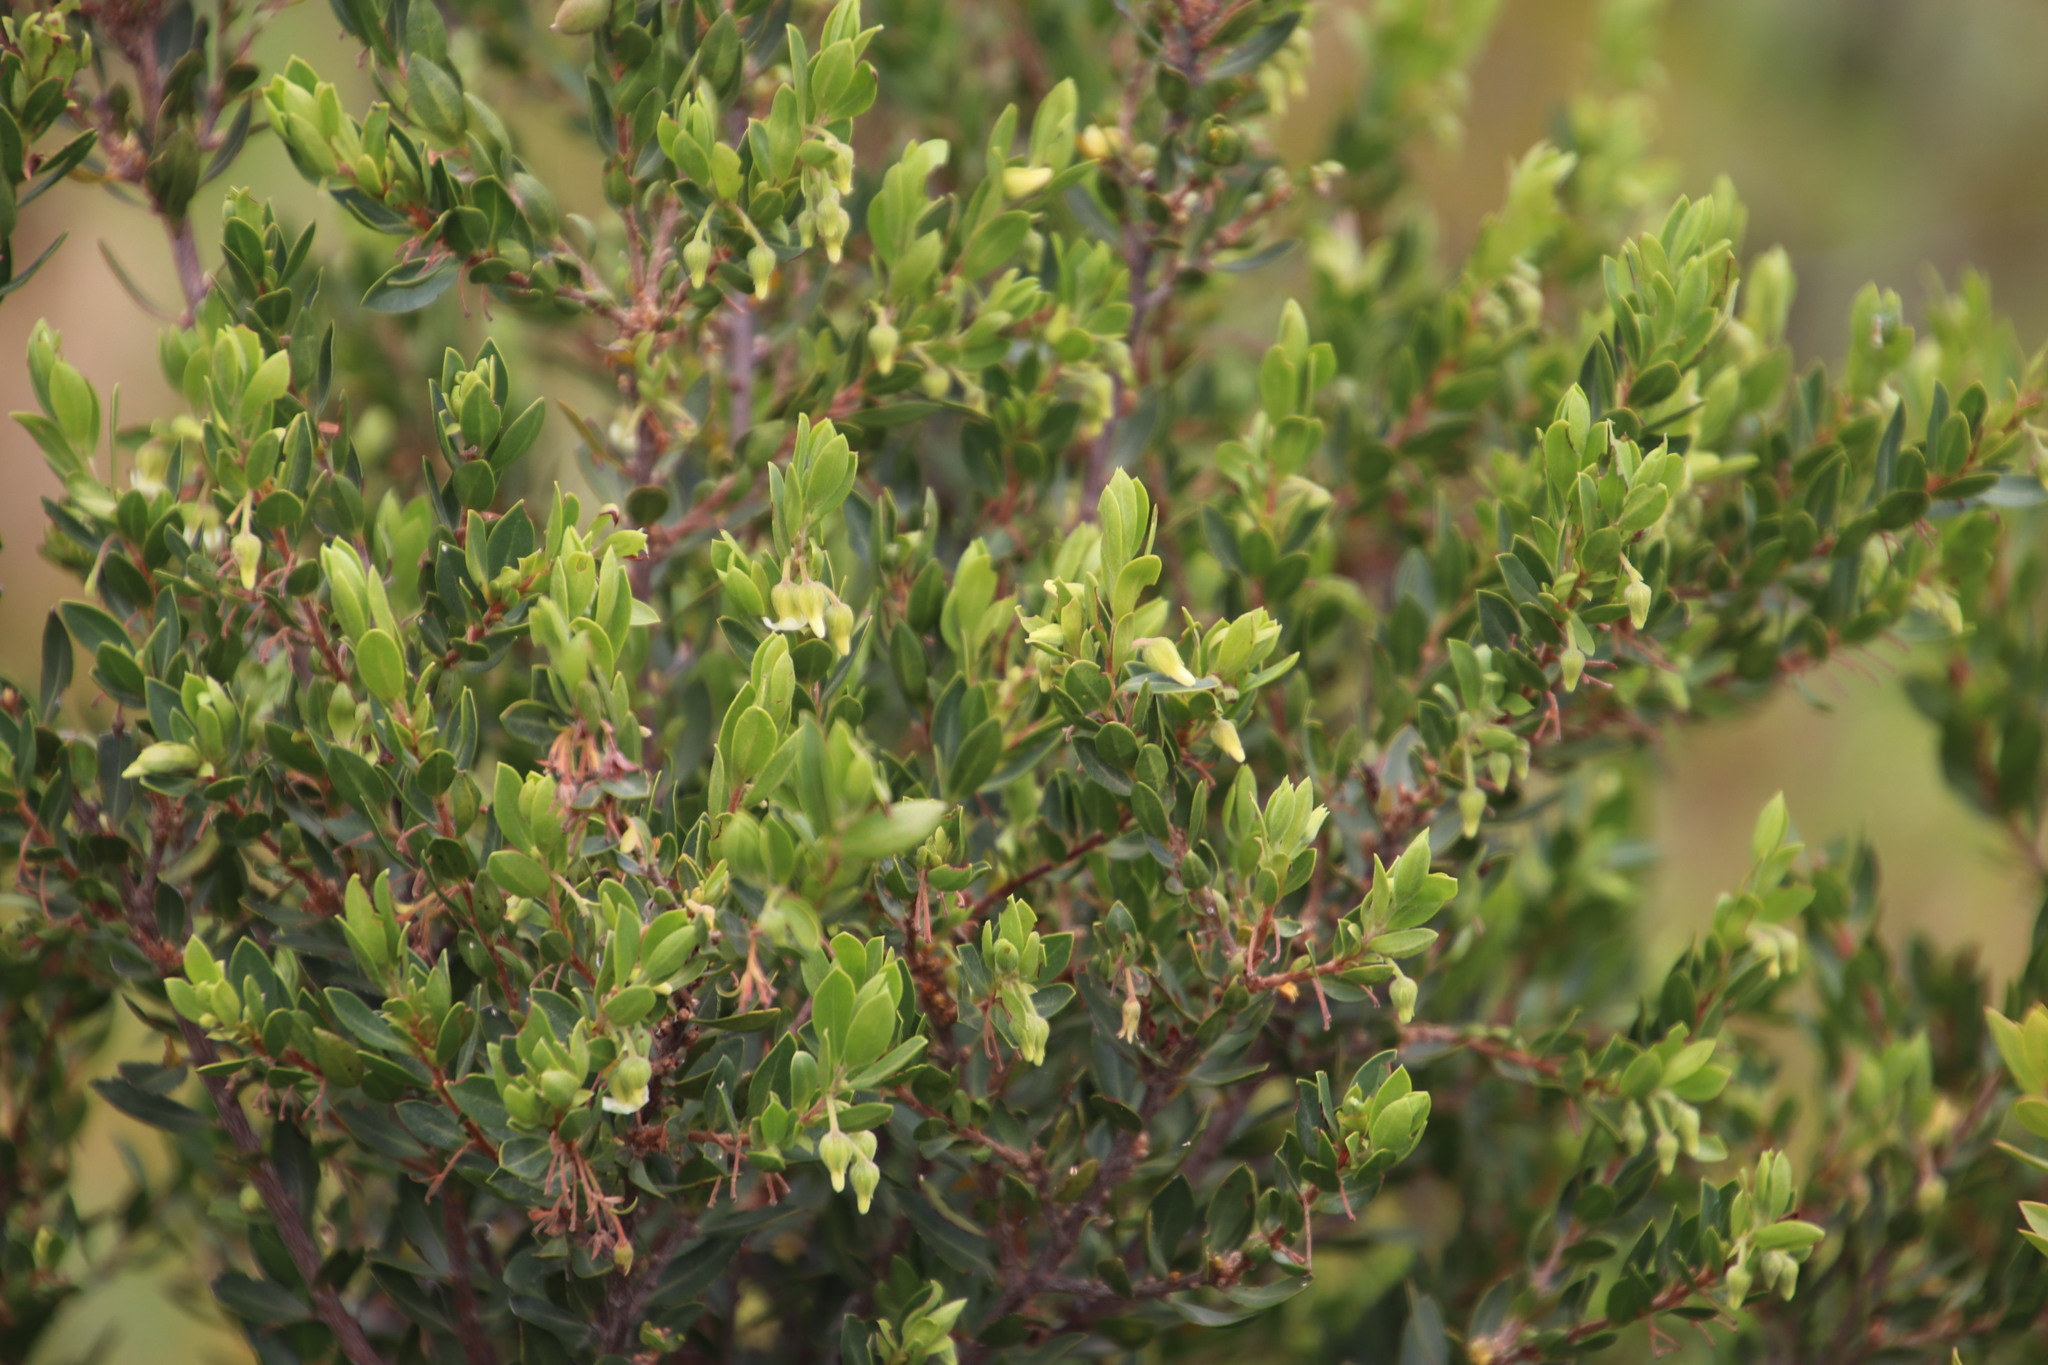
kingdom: Plantae
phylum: Tracheophyta
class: Magnoliopsida
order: Ericales
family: Ebenaceae
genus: Diospyros
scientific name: Diospyros glabra
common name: Fynbos star apple
